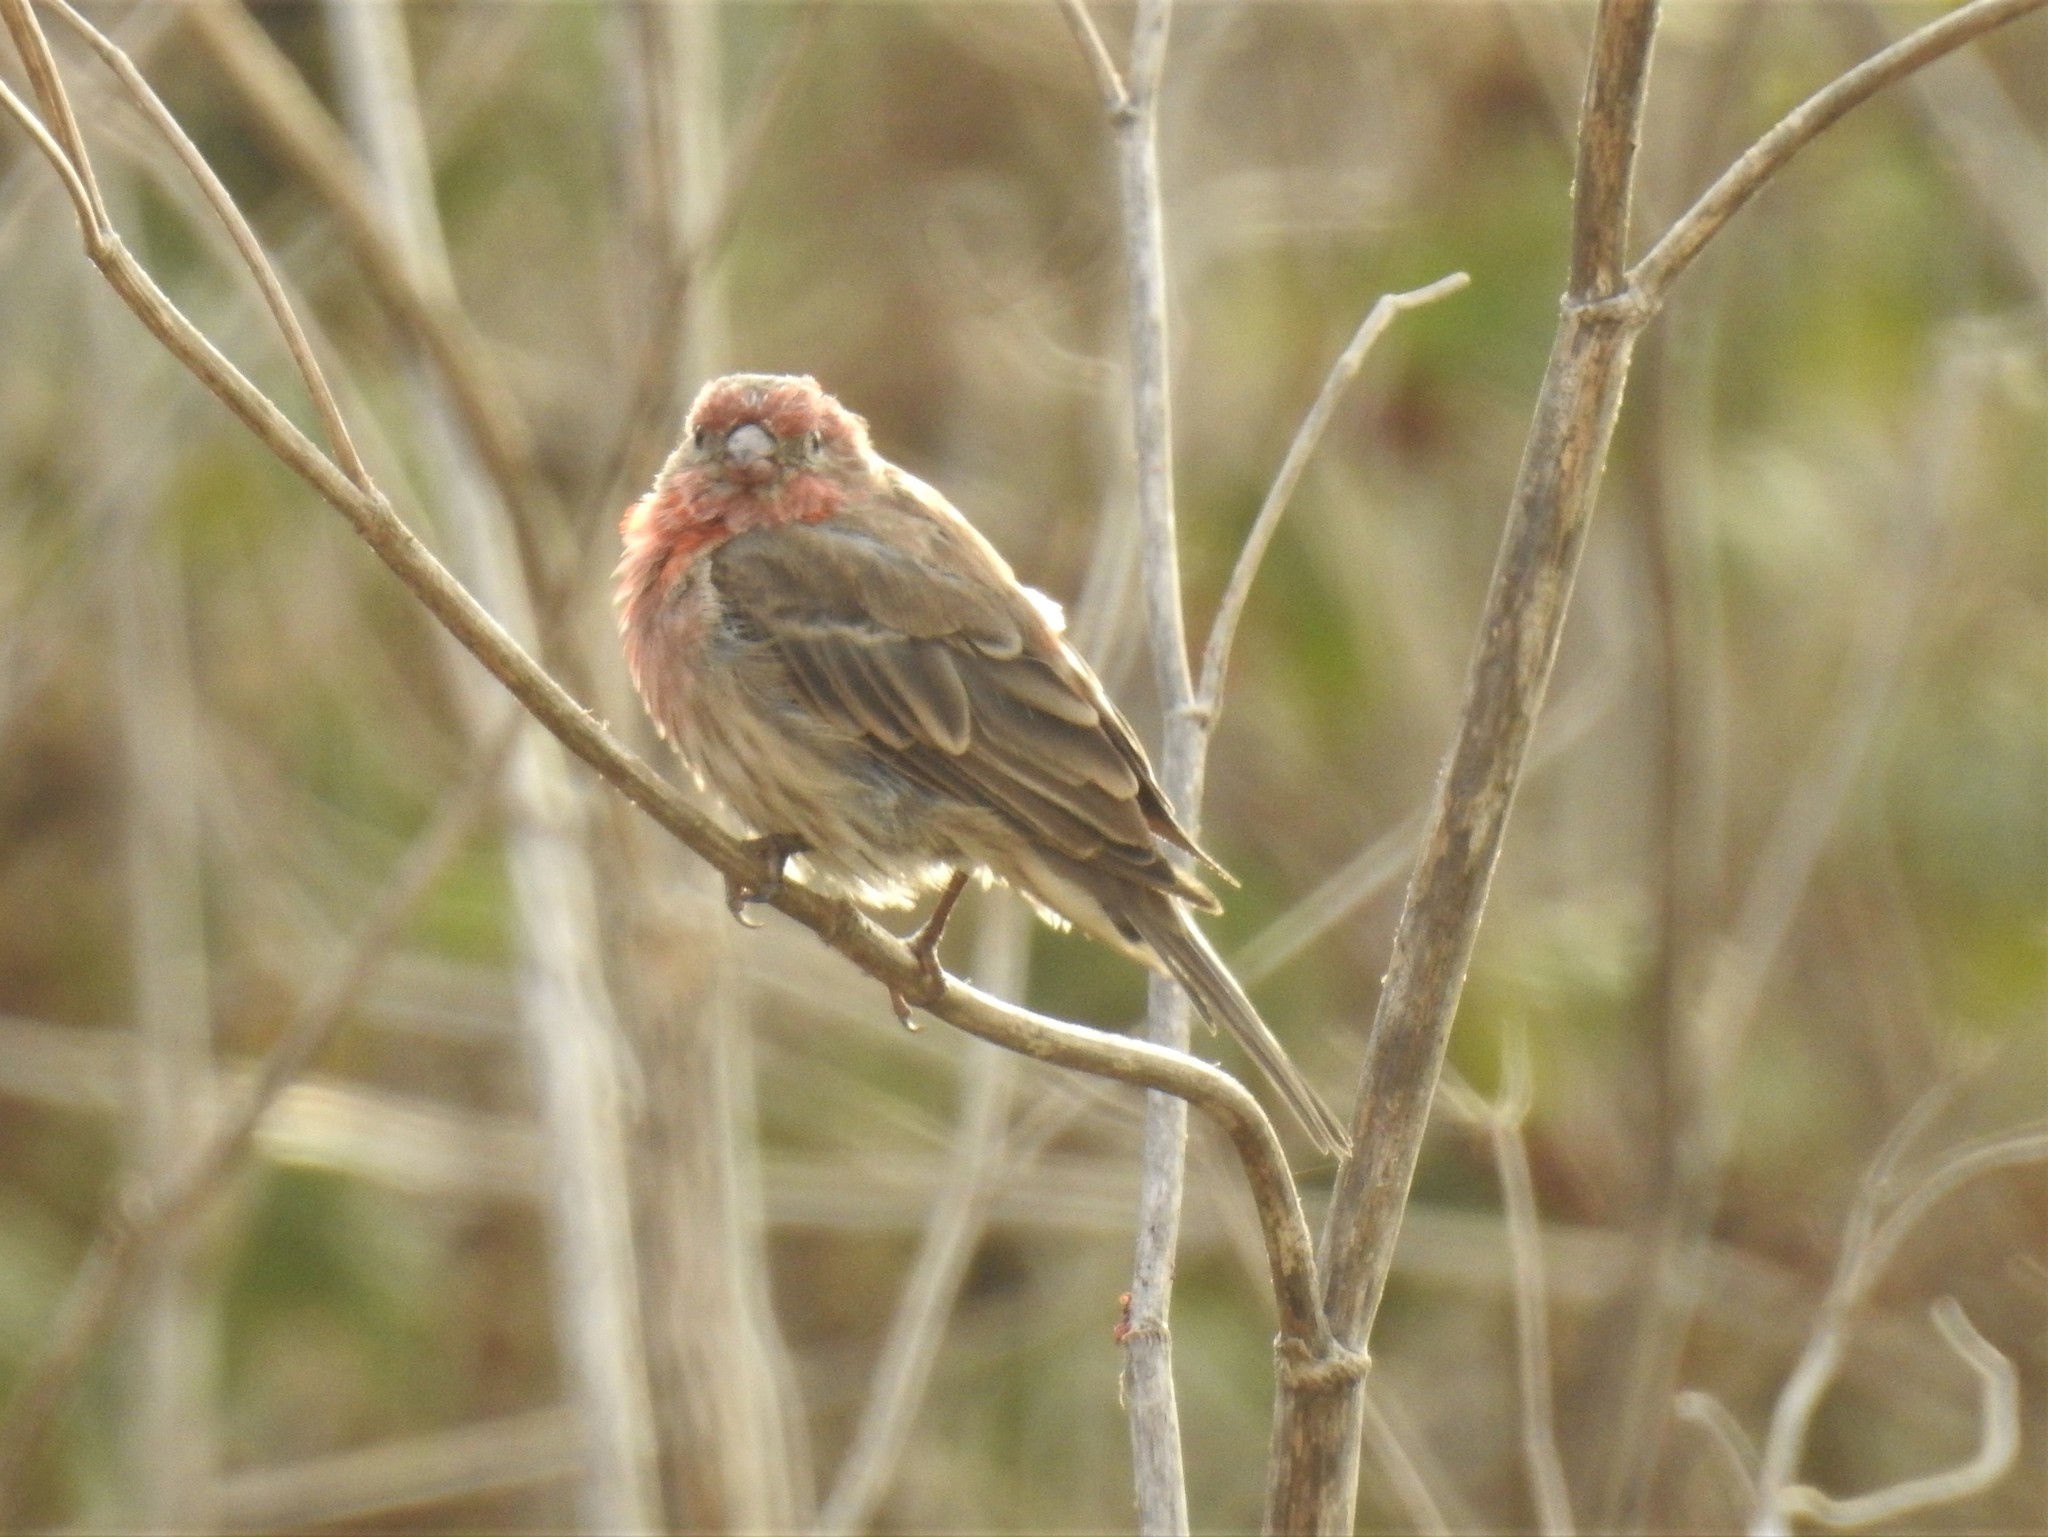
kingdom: Animalia
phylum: Chordata
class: Aves
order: Passeriformes
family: Fringillidae
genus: Haemorhous
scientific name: Haemorhous mexicanus
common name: House finch
